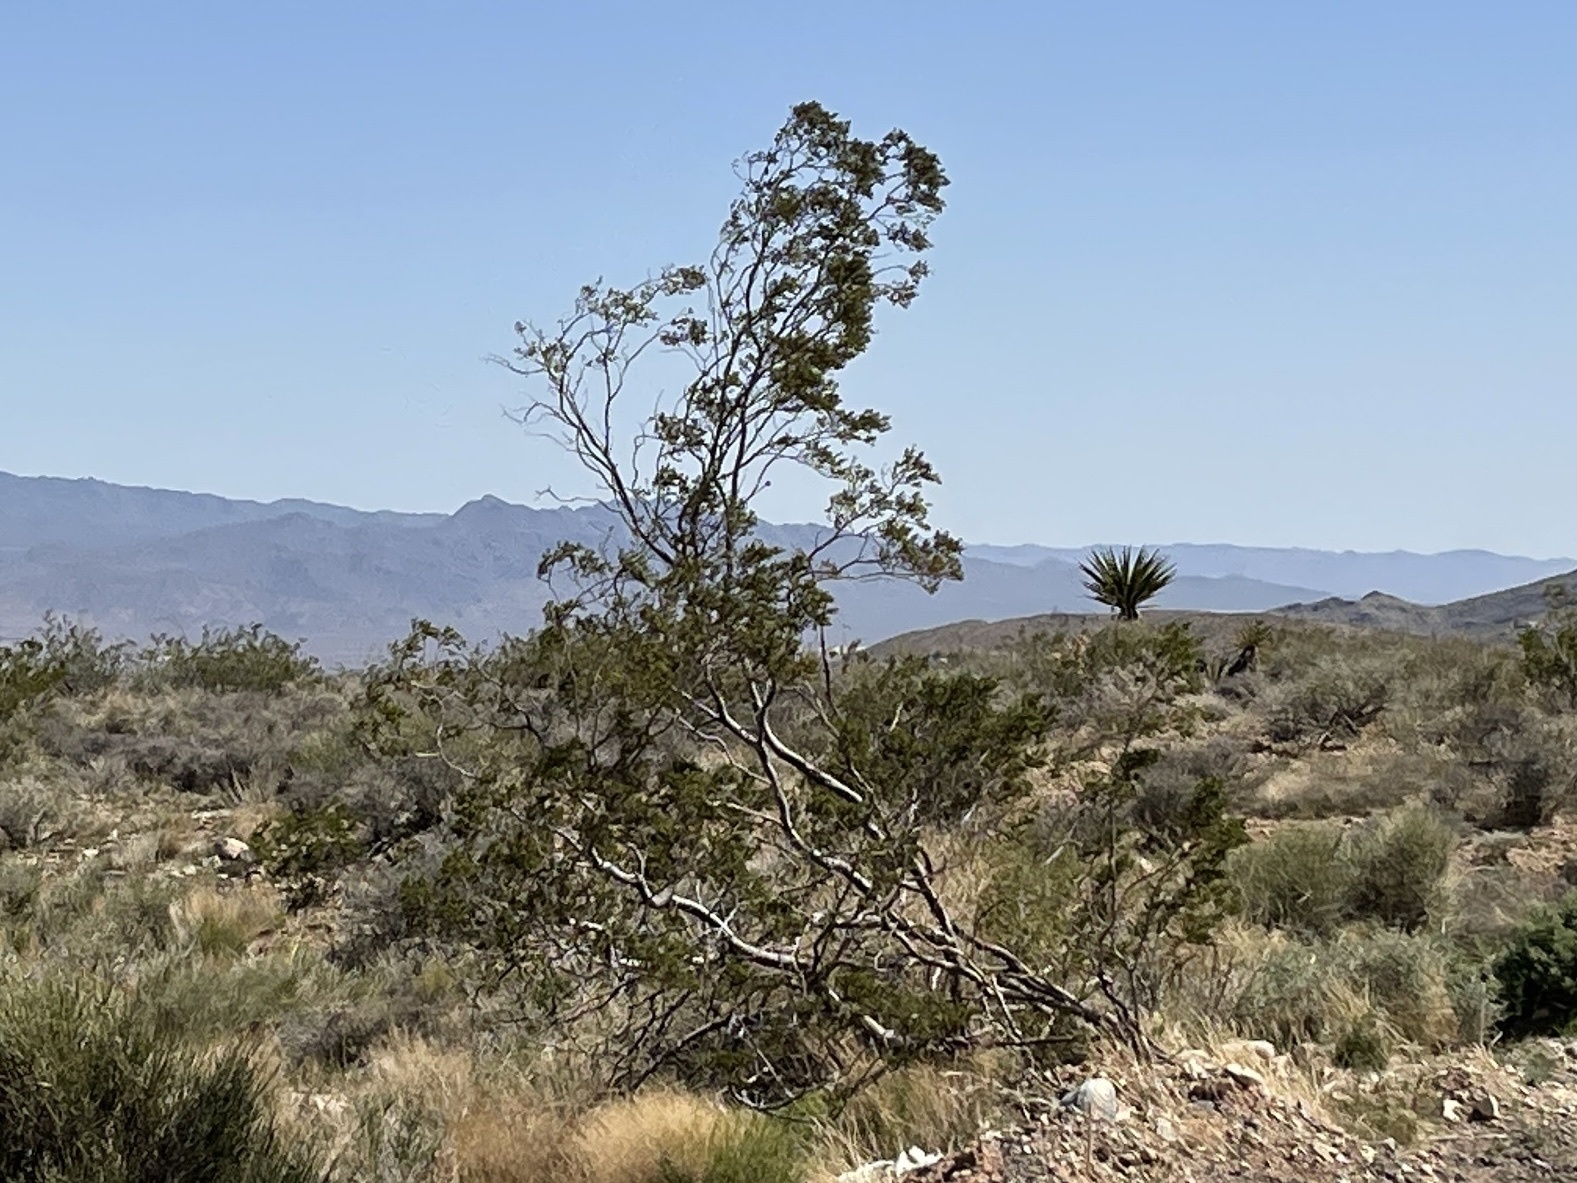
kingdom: Plantae
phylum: Tracheophyta
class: Magnoliopsida
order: Zygophyllales
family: Zygophyllaceae
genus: Larrea
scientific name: Larrea tridentata
